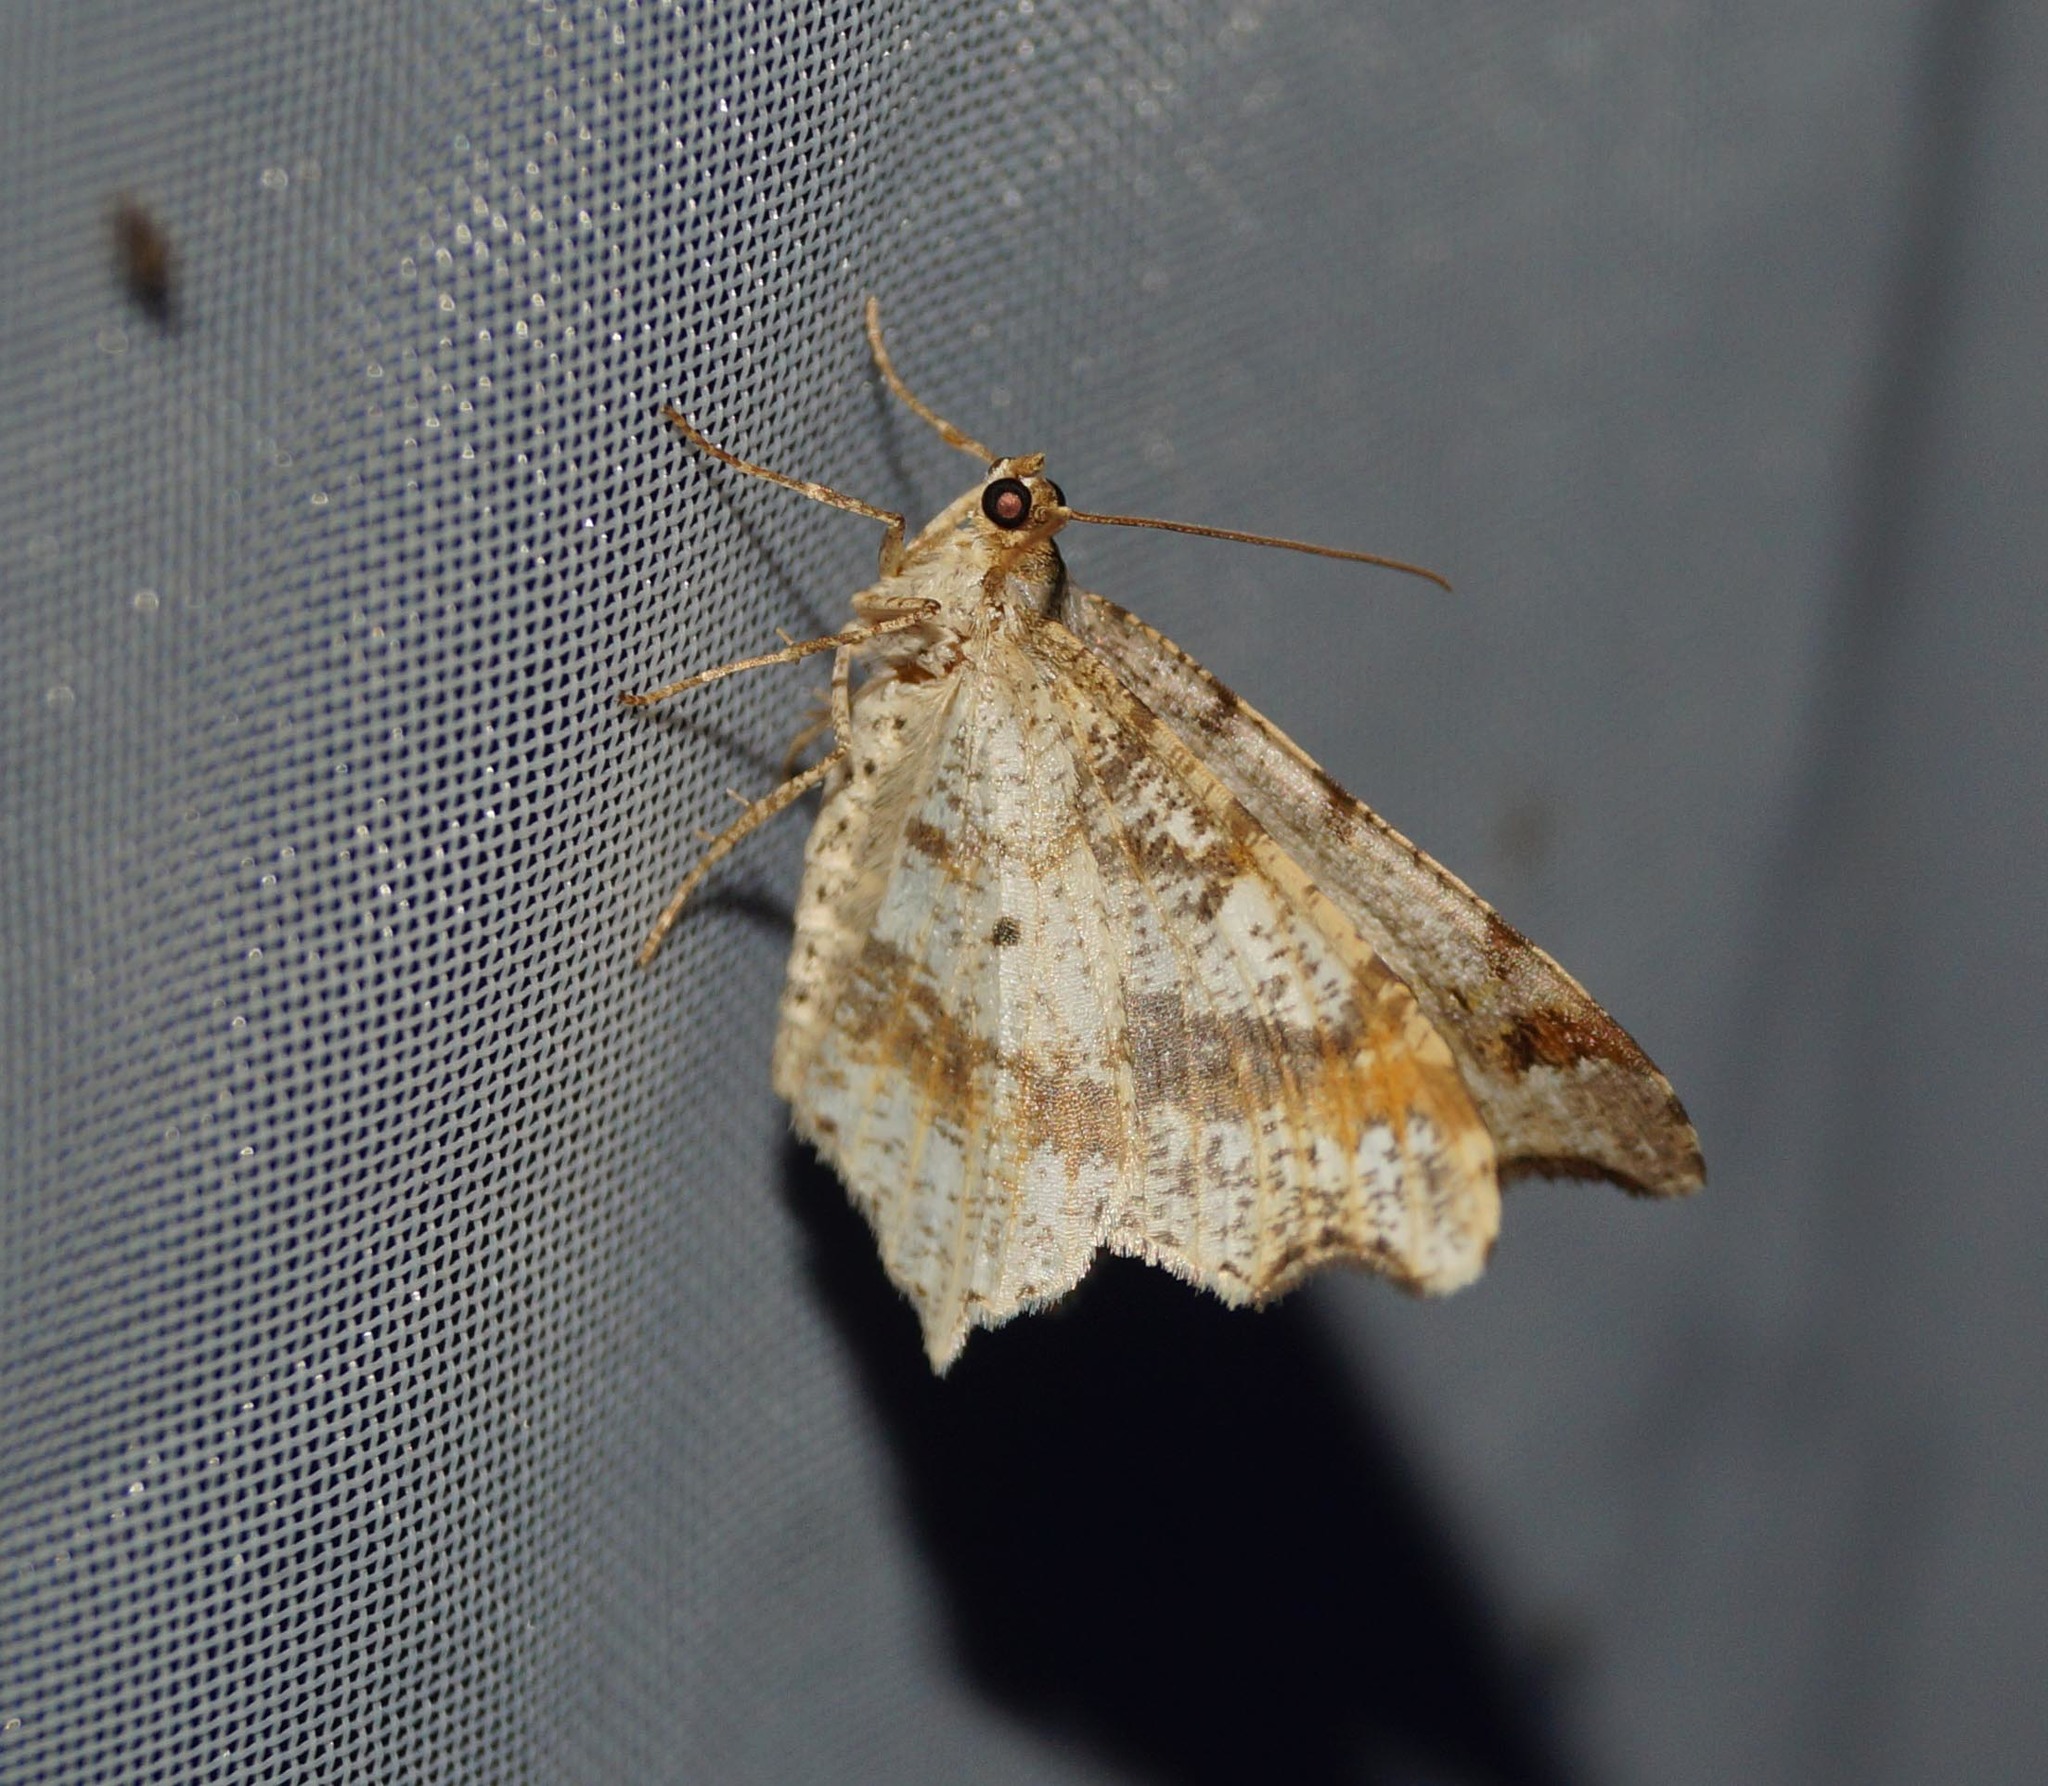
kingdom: Animalia
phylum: Arthropoda
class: Insecta
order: Lepidoptera
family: Geometridae
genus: Macaria
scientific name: Macaria alternata
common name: Sharp-angled peacock
